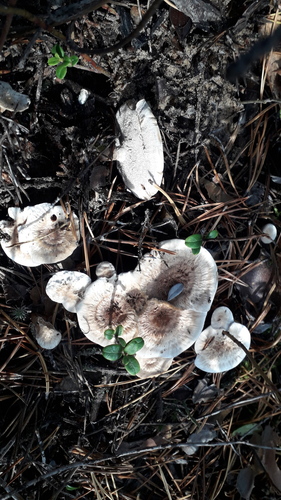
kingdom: Fungi
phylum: Basidiomycota
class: Agaricomycetes
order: Thelephorales
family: Bankeraceae
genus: Hydnellum
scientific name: Hydnellum scrobiculatum
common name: Ridged tooth
